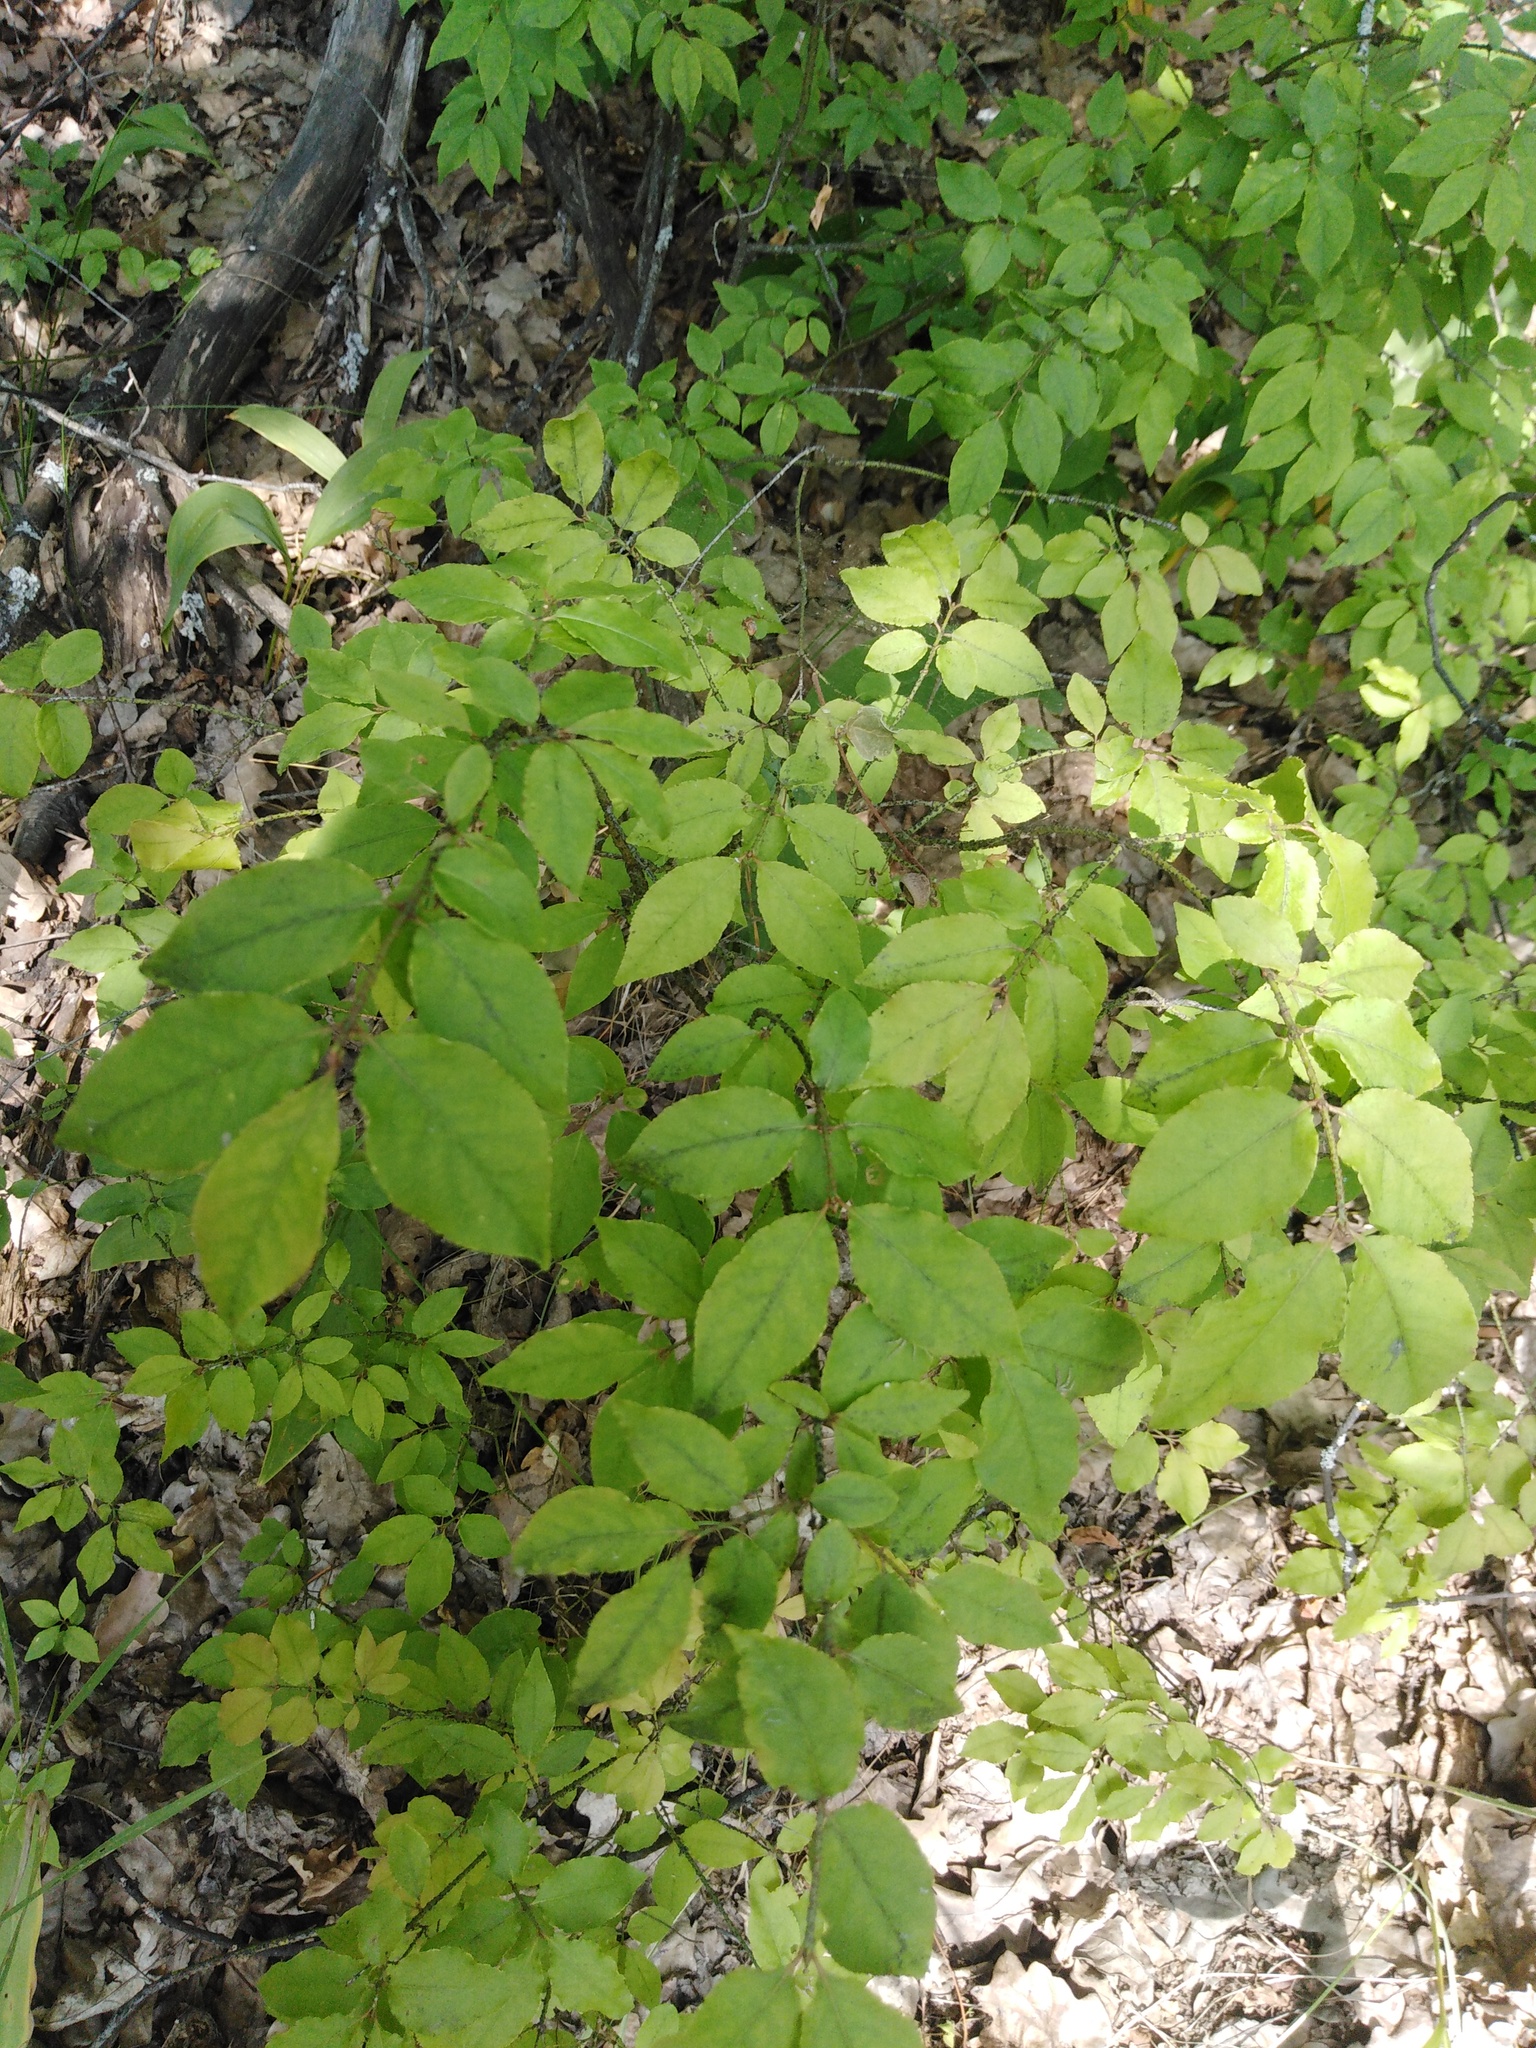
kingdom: Plantae
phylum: Tracheophyta
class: Magnoliopsida
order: Celastrales
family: Celastraceae
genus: Euonymus
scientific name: Euonymus verrucosus
